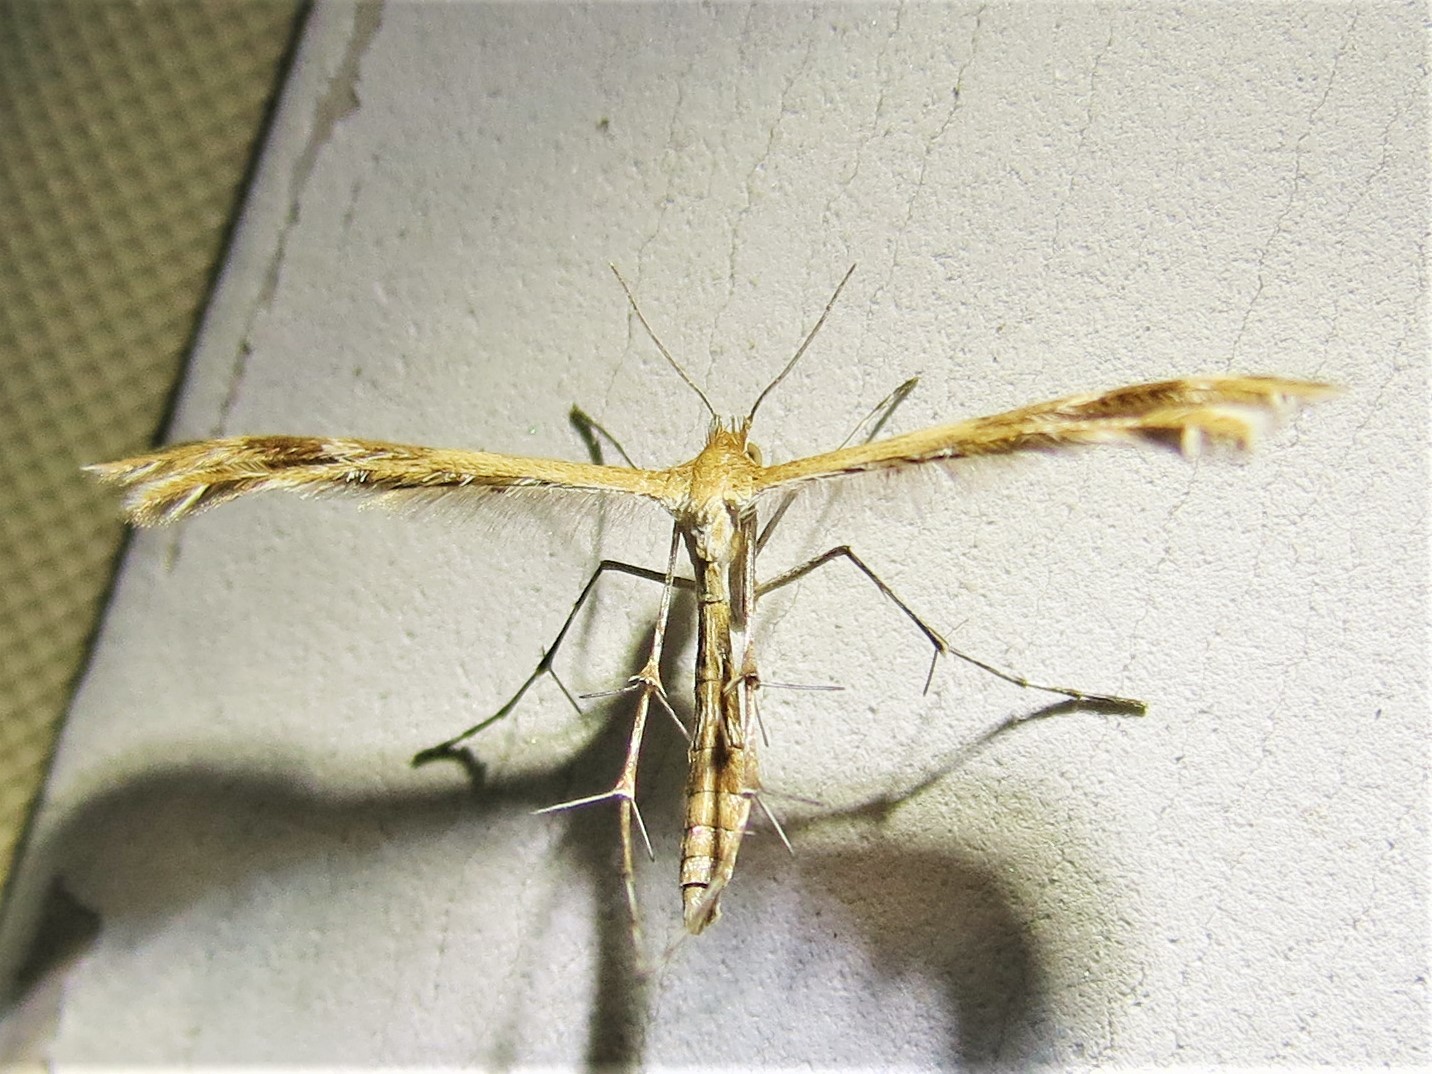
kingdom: Animalia
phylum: Arthropoda
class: Insecta
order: Lepidoptera
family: Pterophoridae
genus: Megalorhipida
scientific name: Megalorhipida leucodactylus
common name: Plume moth
